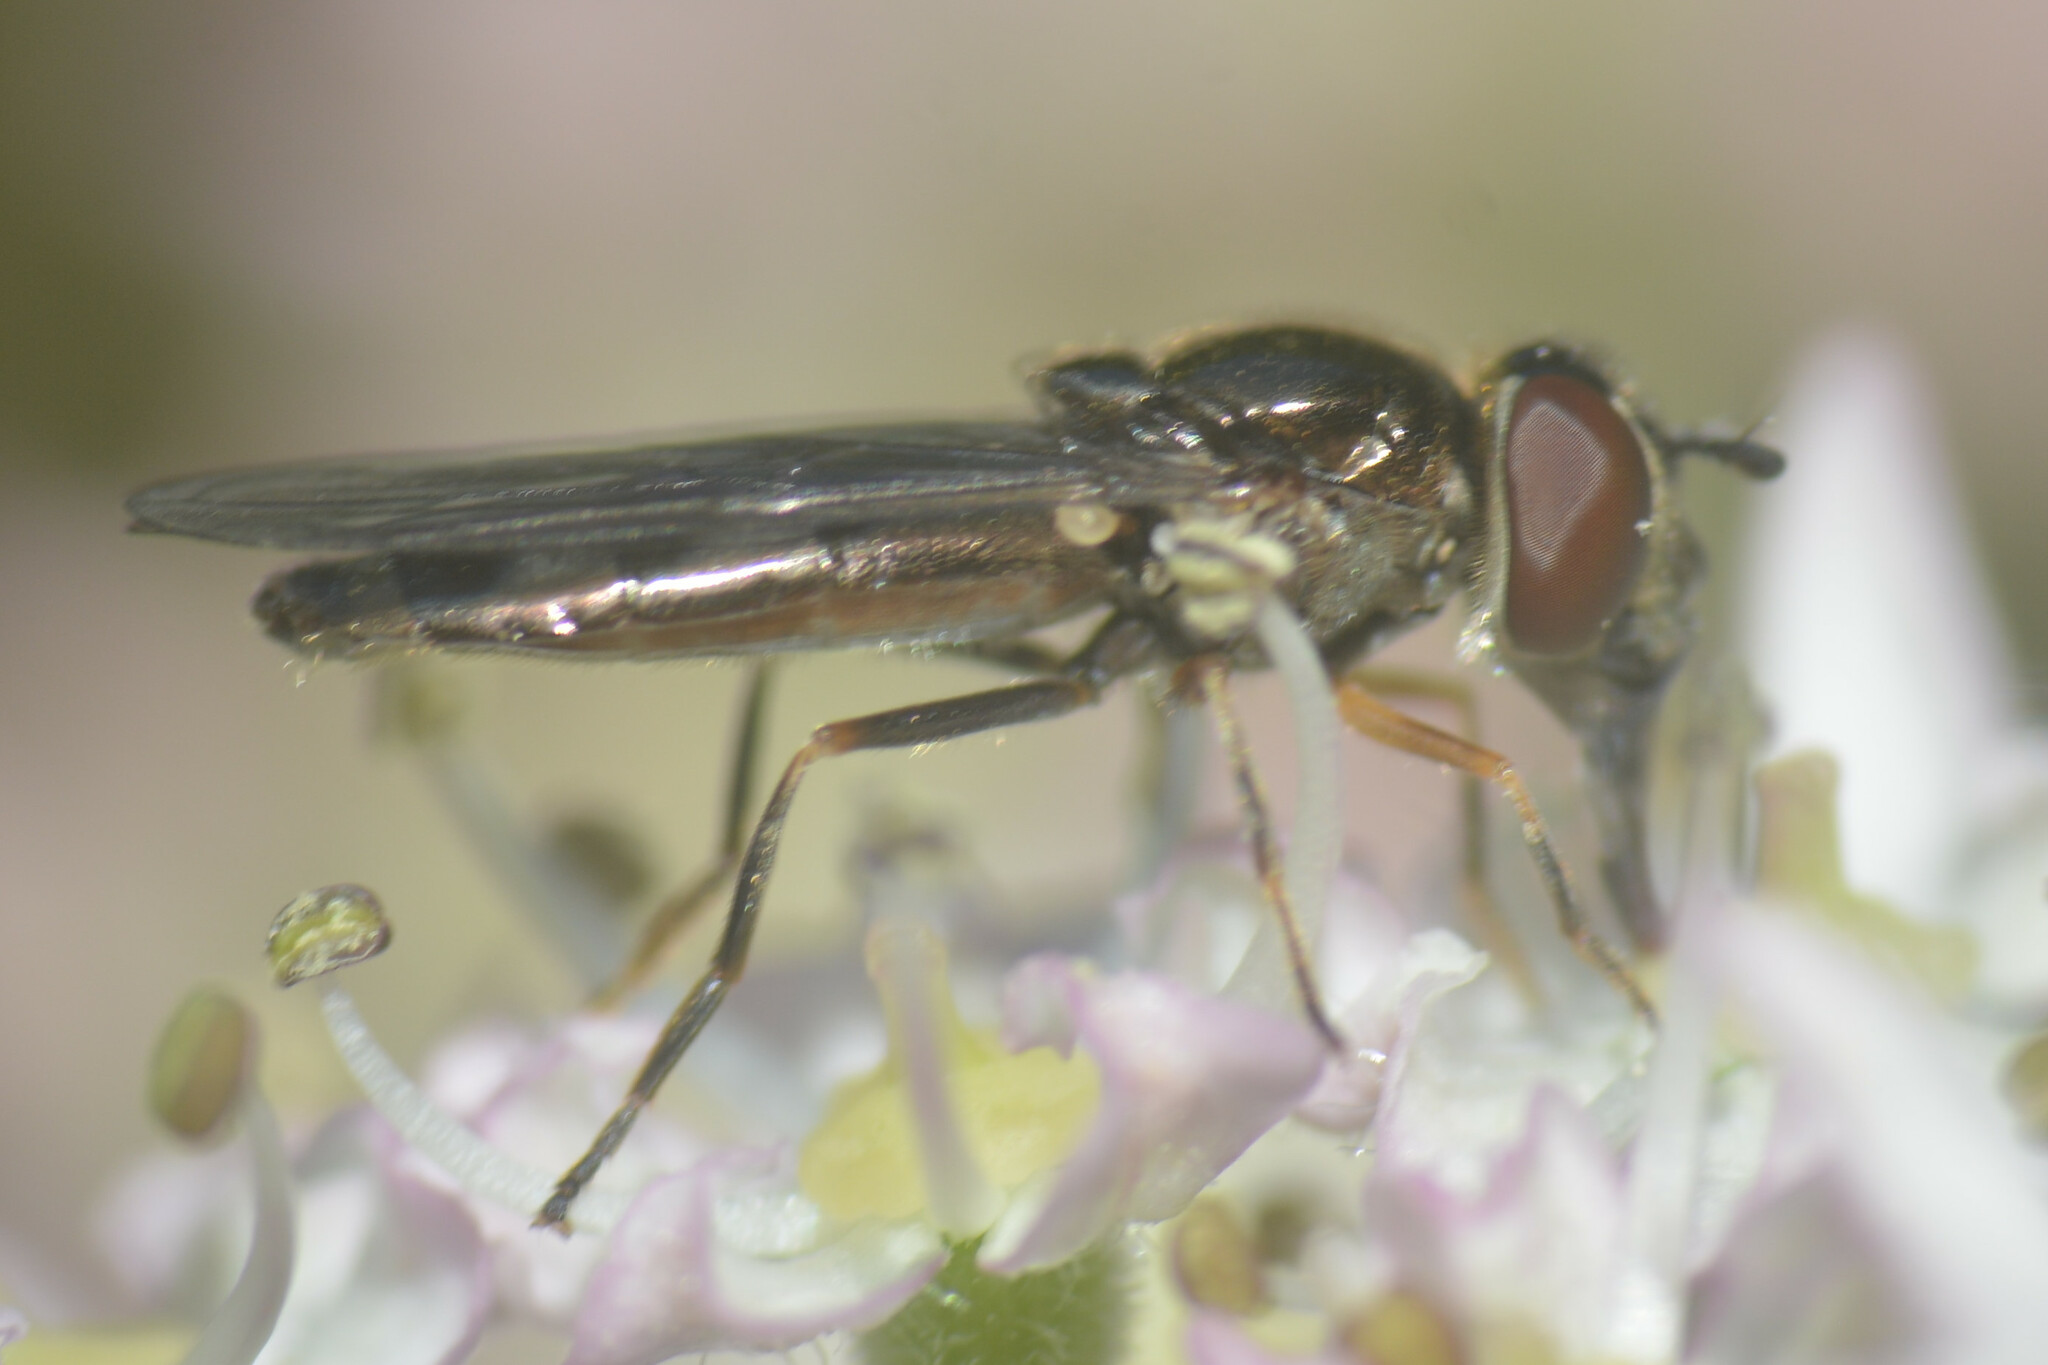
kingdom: Animalia
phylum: Arthropoda
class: Insecta
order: Diptera
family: Syrphidae
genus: Platycheirus
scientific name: Platycheirus albimanus
